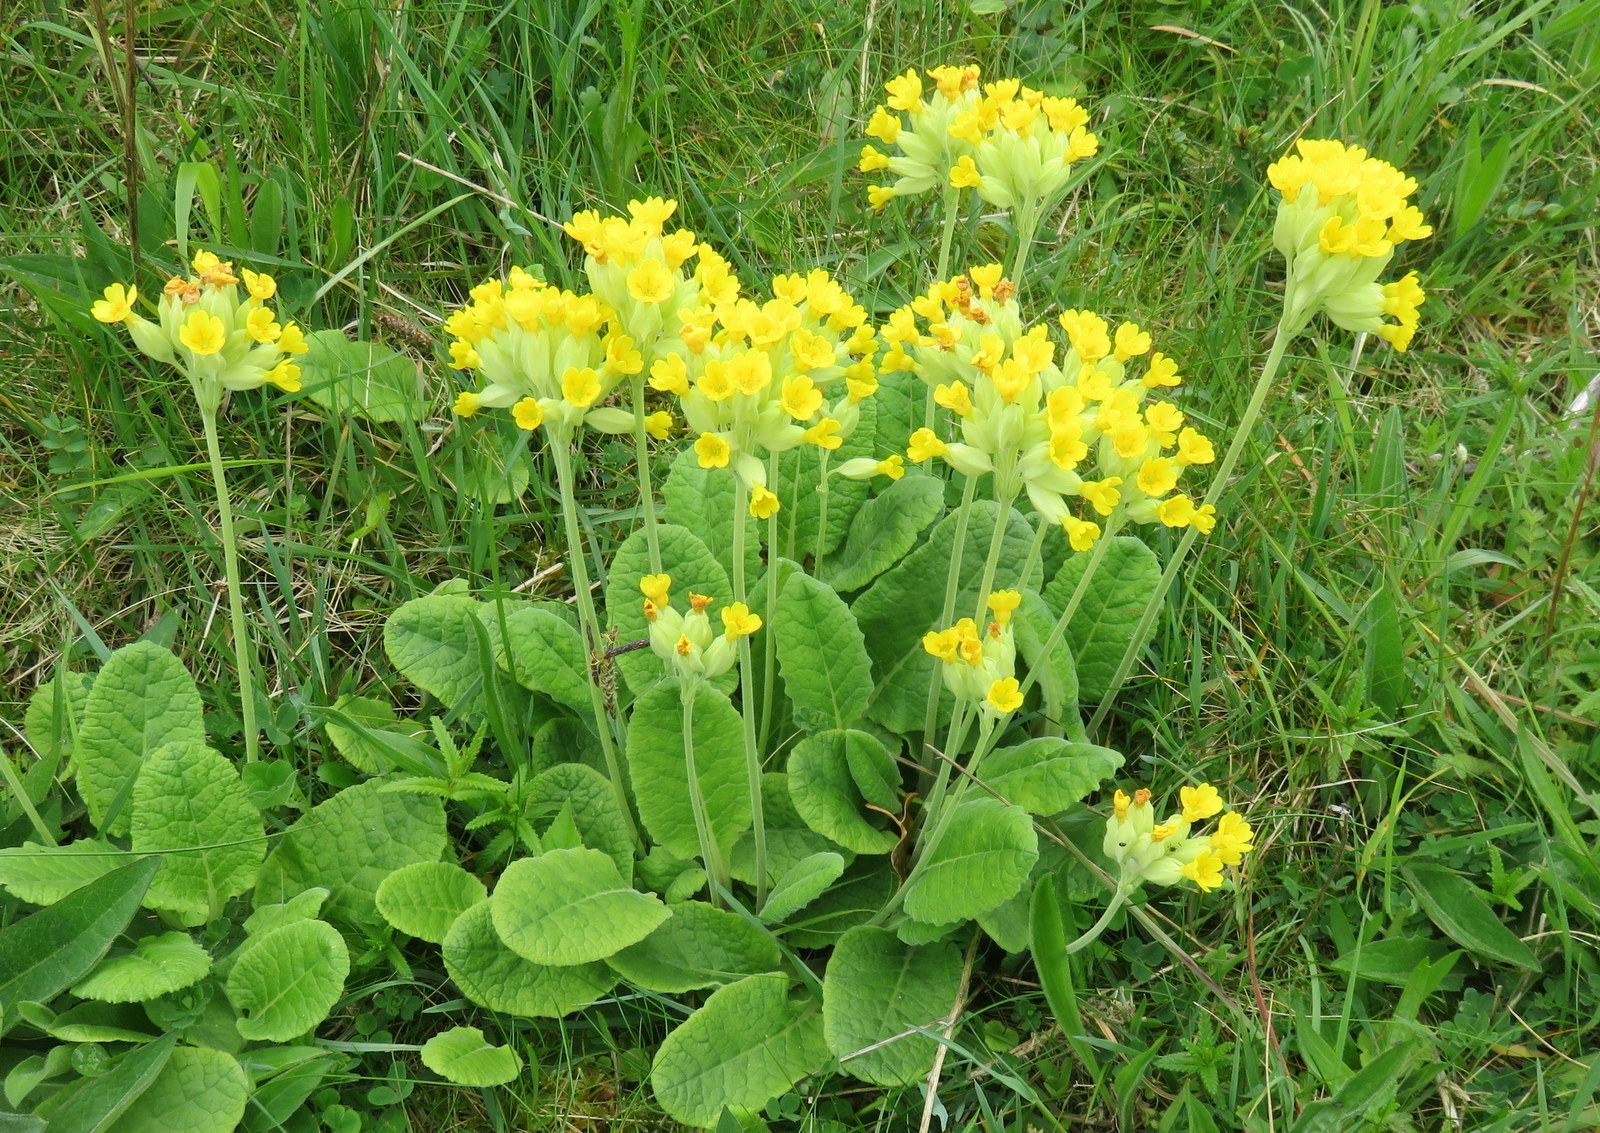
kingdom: Plantae
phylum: Tracheophyta
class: Magnoliopsida
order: Ericales
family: Primulaceae
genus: Primula
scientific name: Primula veris
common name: Cowslip
